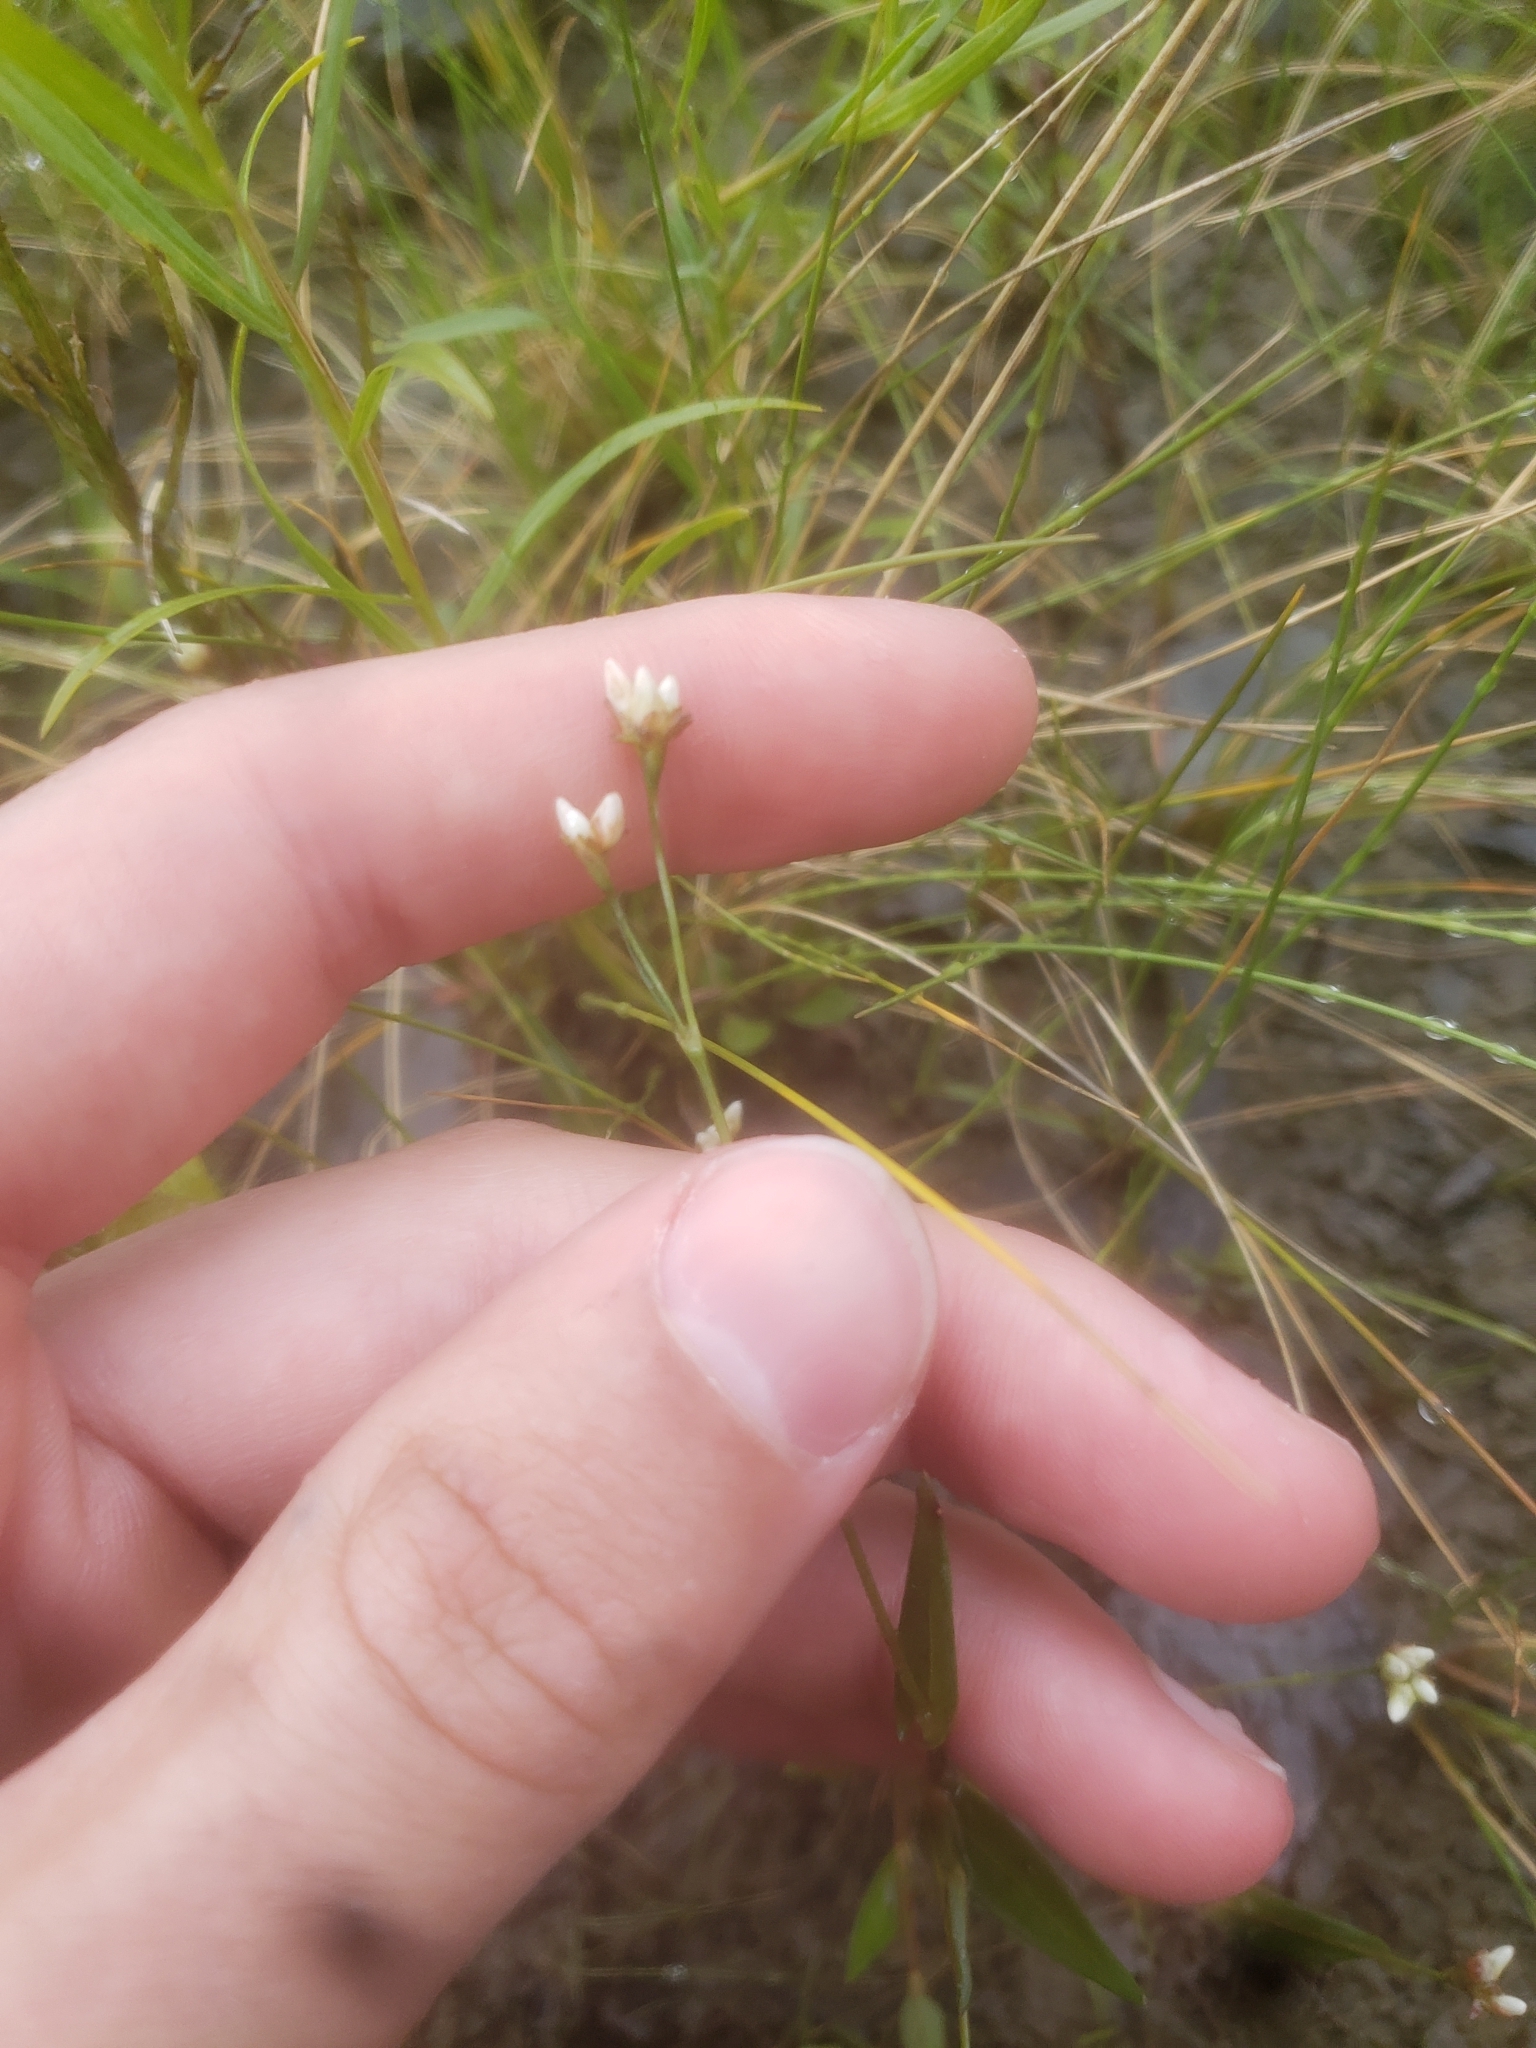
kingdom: Plantae
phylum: Tracheophyta
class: Magnoliopsida
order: Caryophyllales
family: Polygonaceae
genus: Persicaria
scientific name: Persicaria sagittata
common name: American tearthumb
